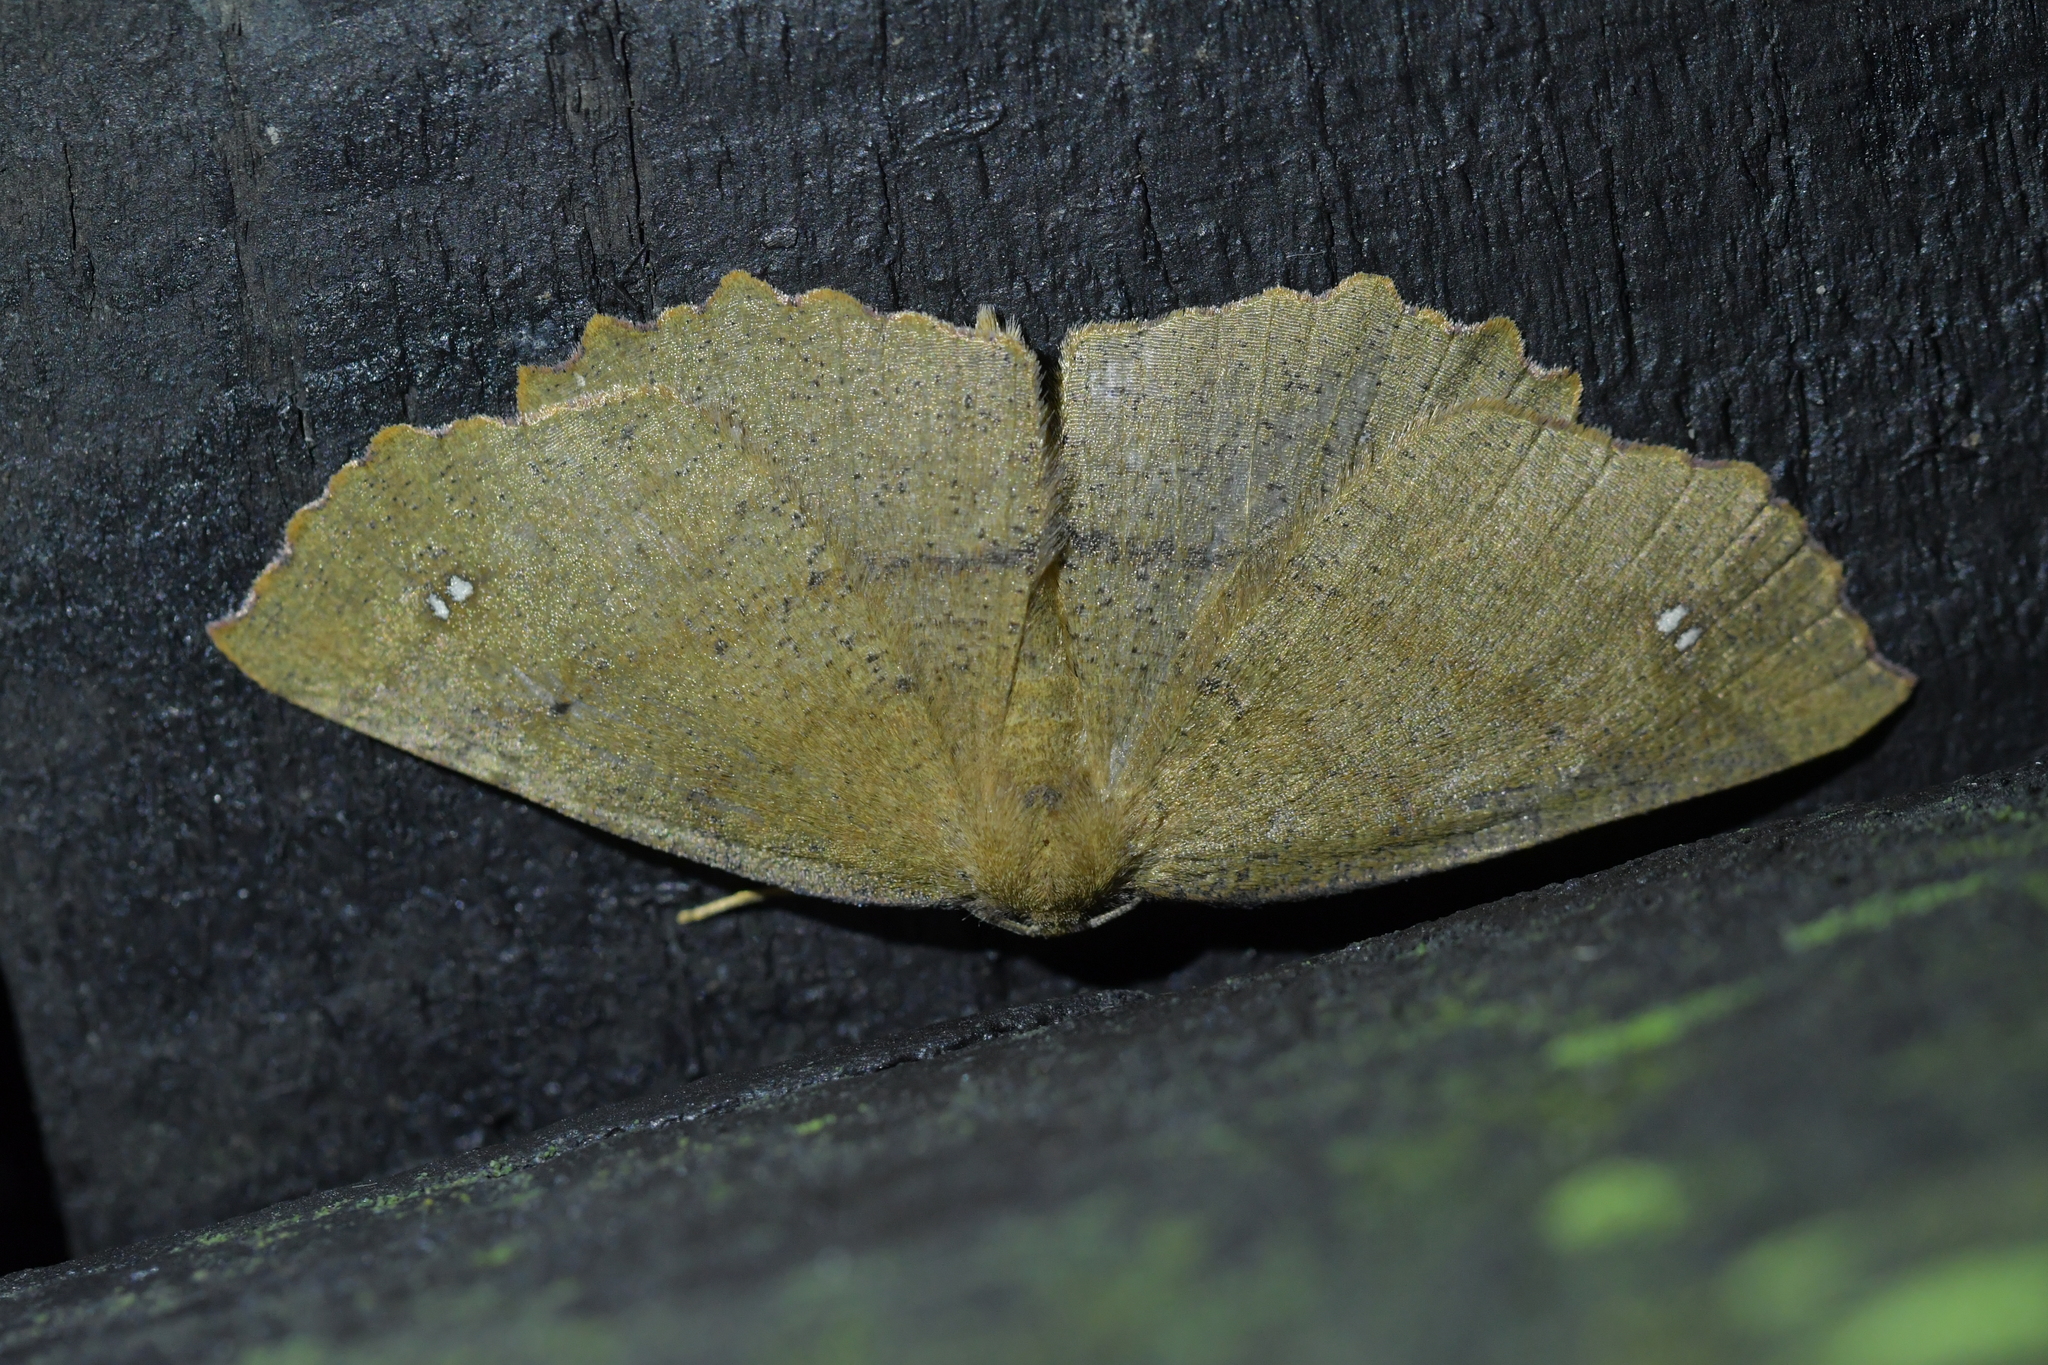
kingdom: Animalia
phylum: Arthropoda
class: Insecta
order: Lepidoptera
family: Geometridae
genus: Xyridacma
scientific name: Xyridacma ustaria
